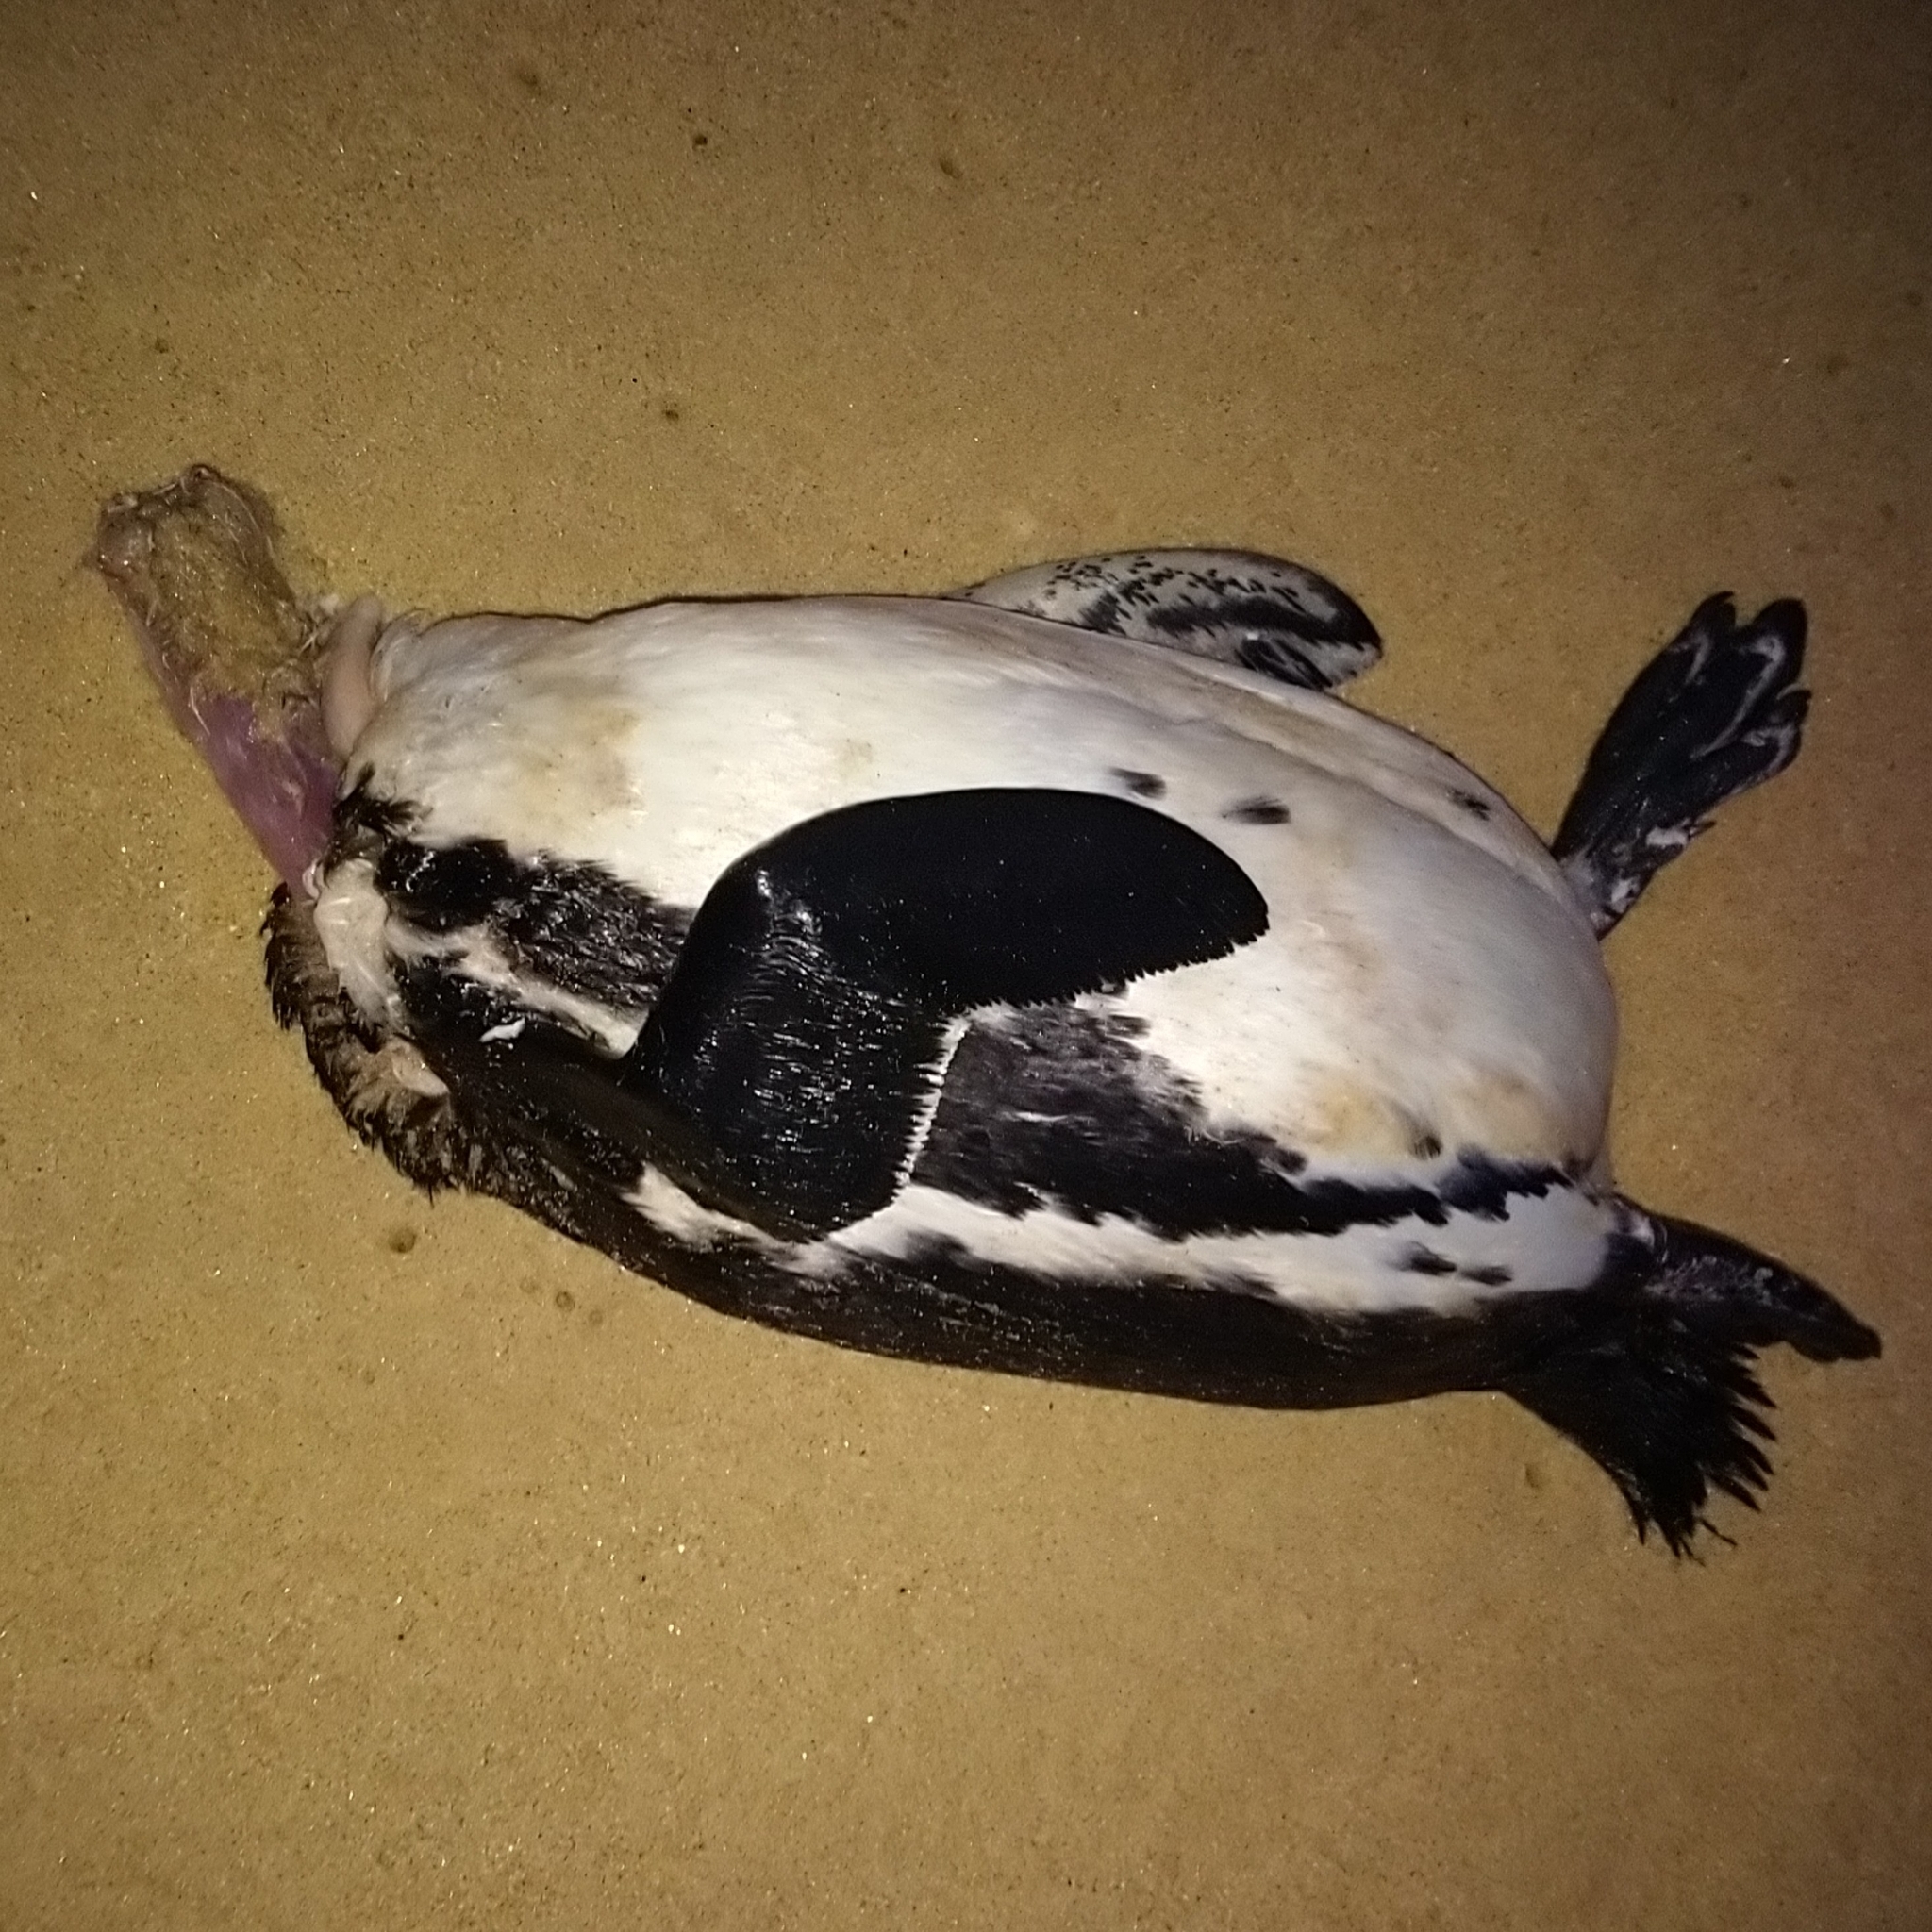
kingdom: Animalia
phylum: Chordata
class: Aves
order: Sphenisciformes
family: Spheniscidae
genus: Spheniscus
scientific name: Spheniscus demersus
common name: African penguin
